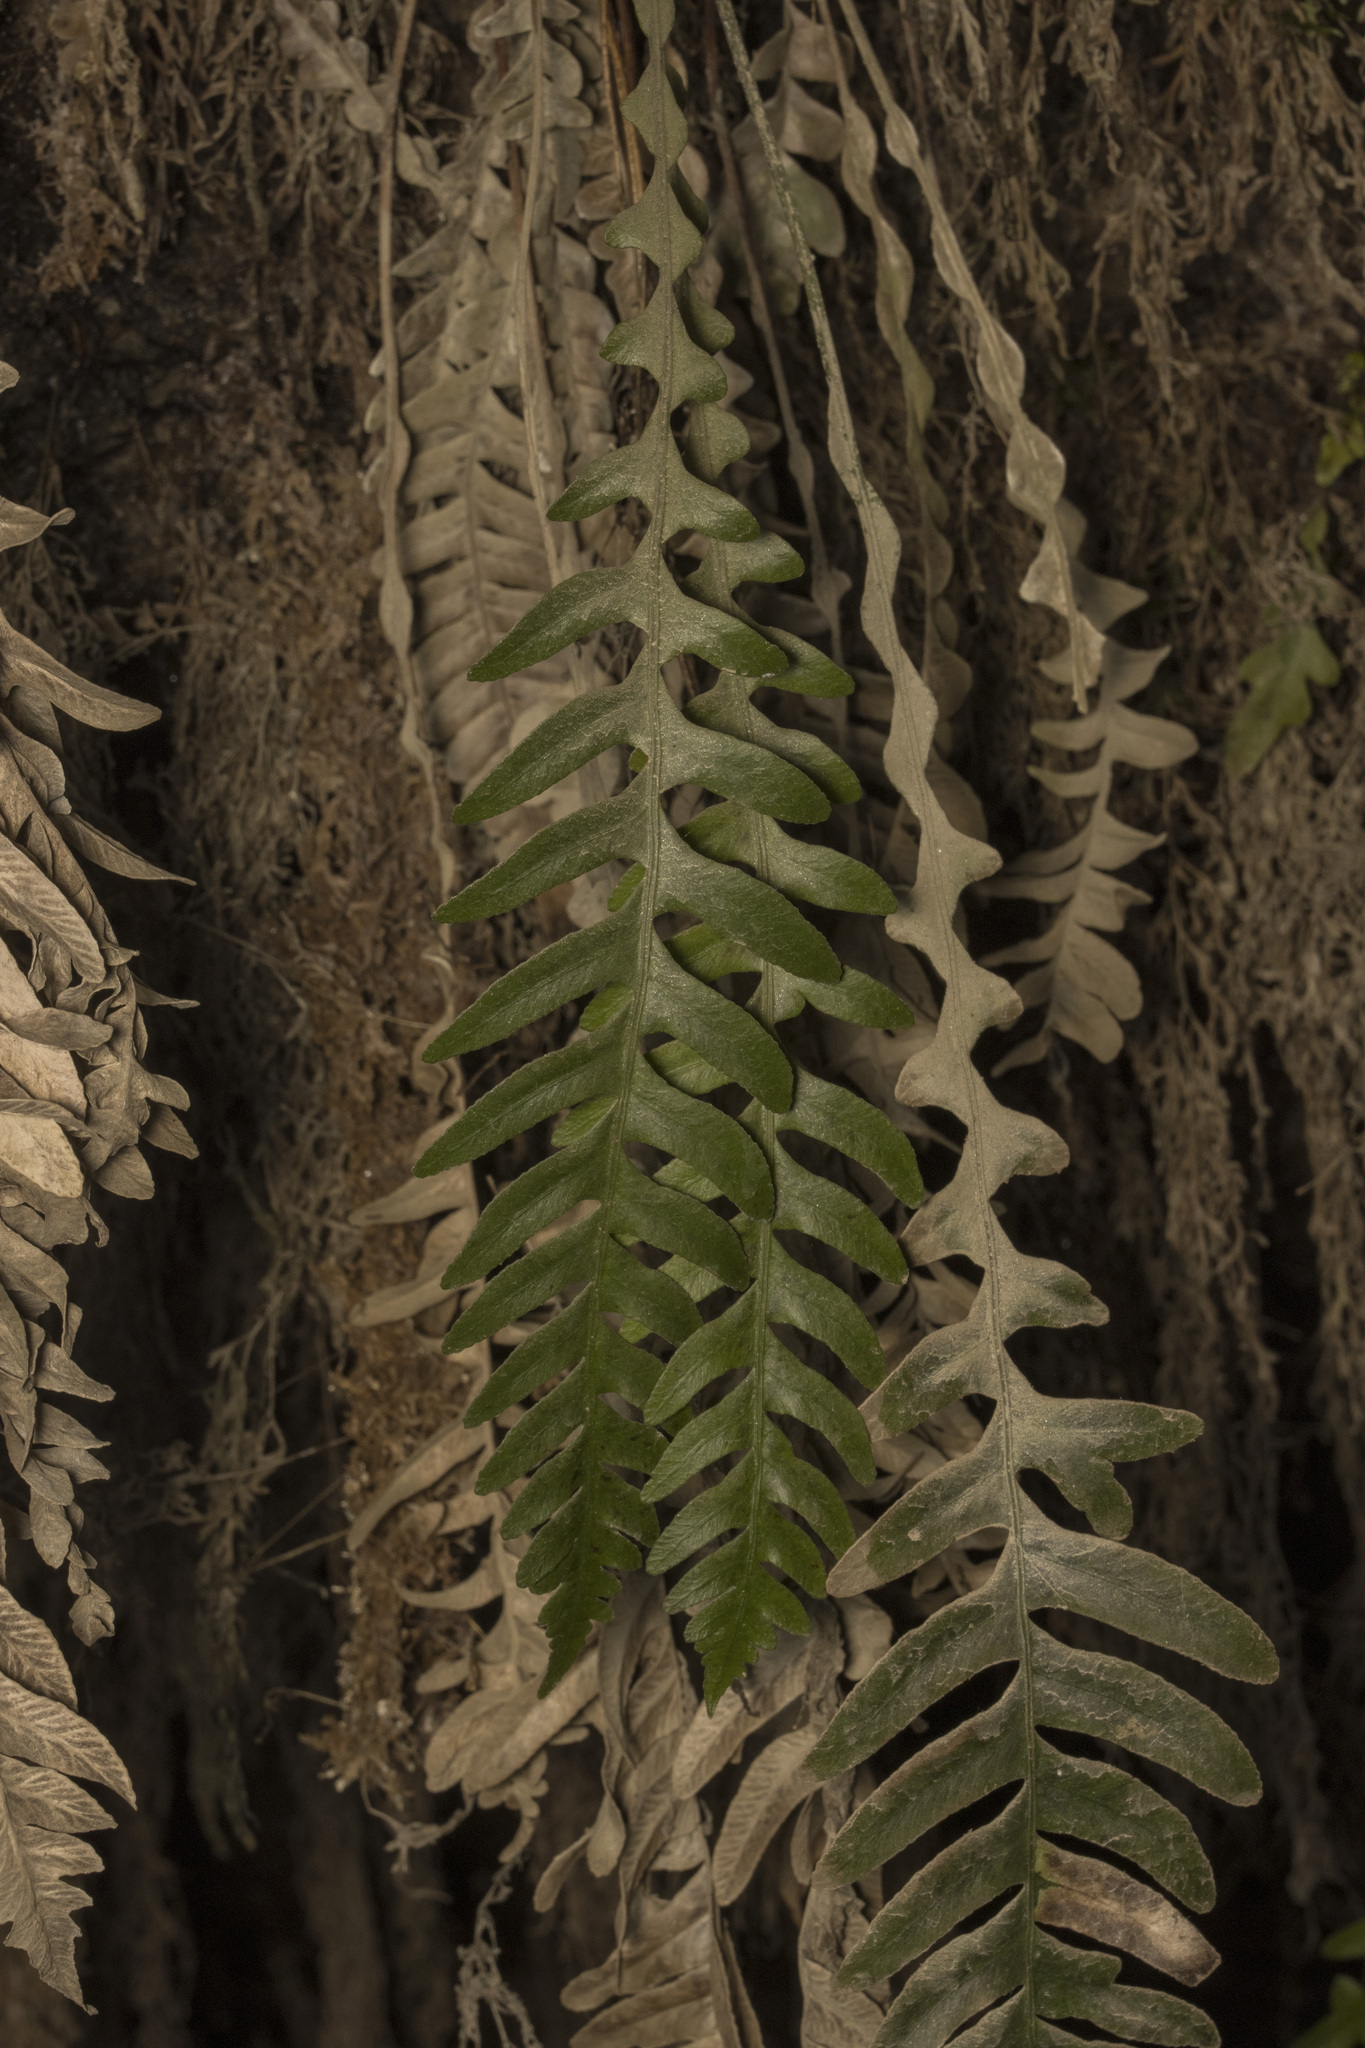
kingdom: Plantae
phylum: Tracheophyta
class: Polypodiopsida
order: Polypodiales
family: Blechnaceae
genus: Austroblechnum
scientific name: Austroblechnum asperum
